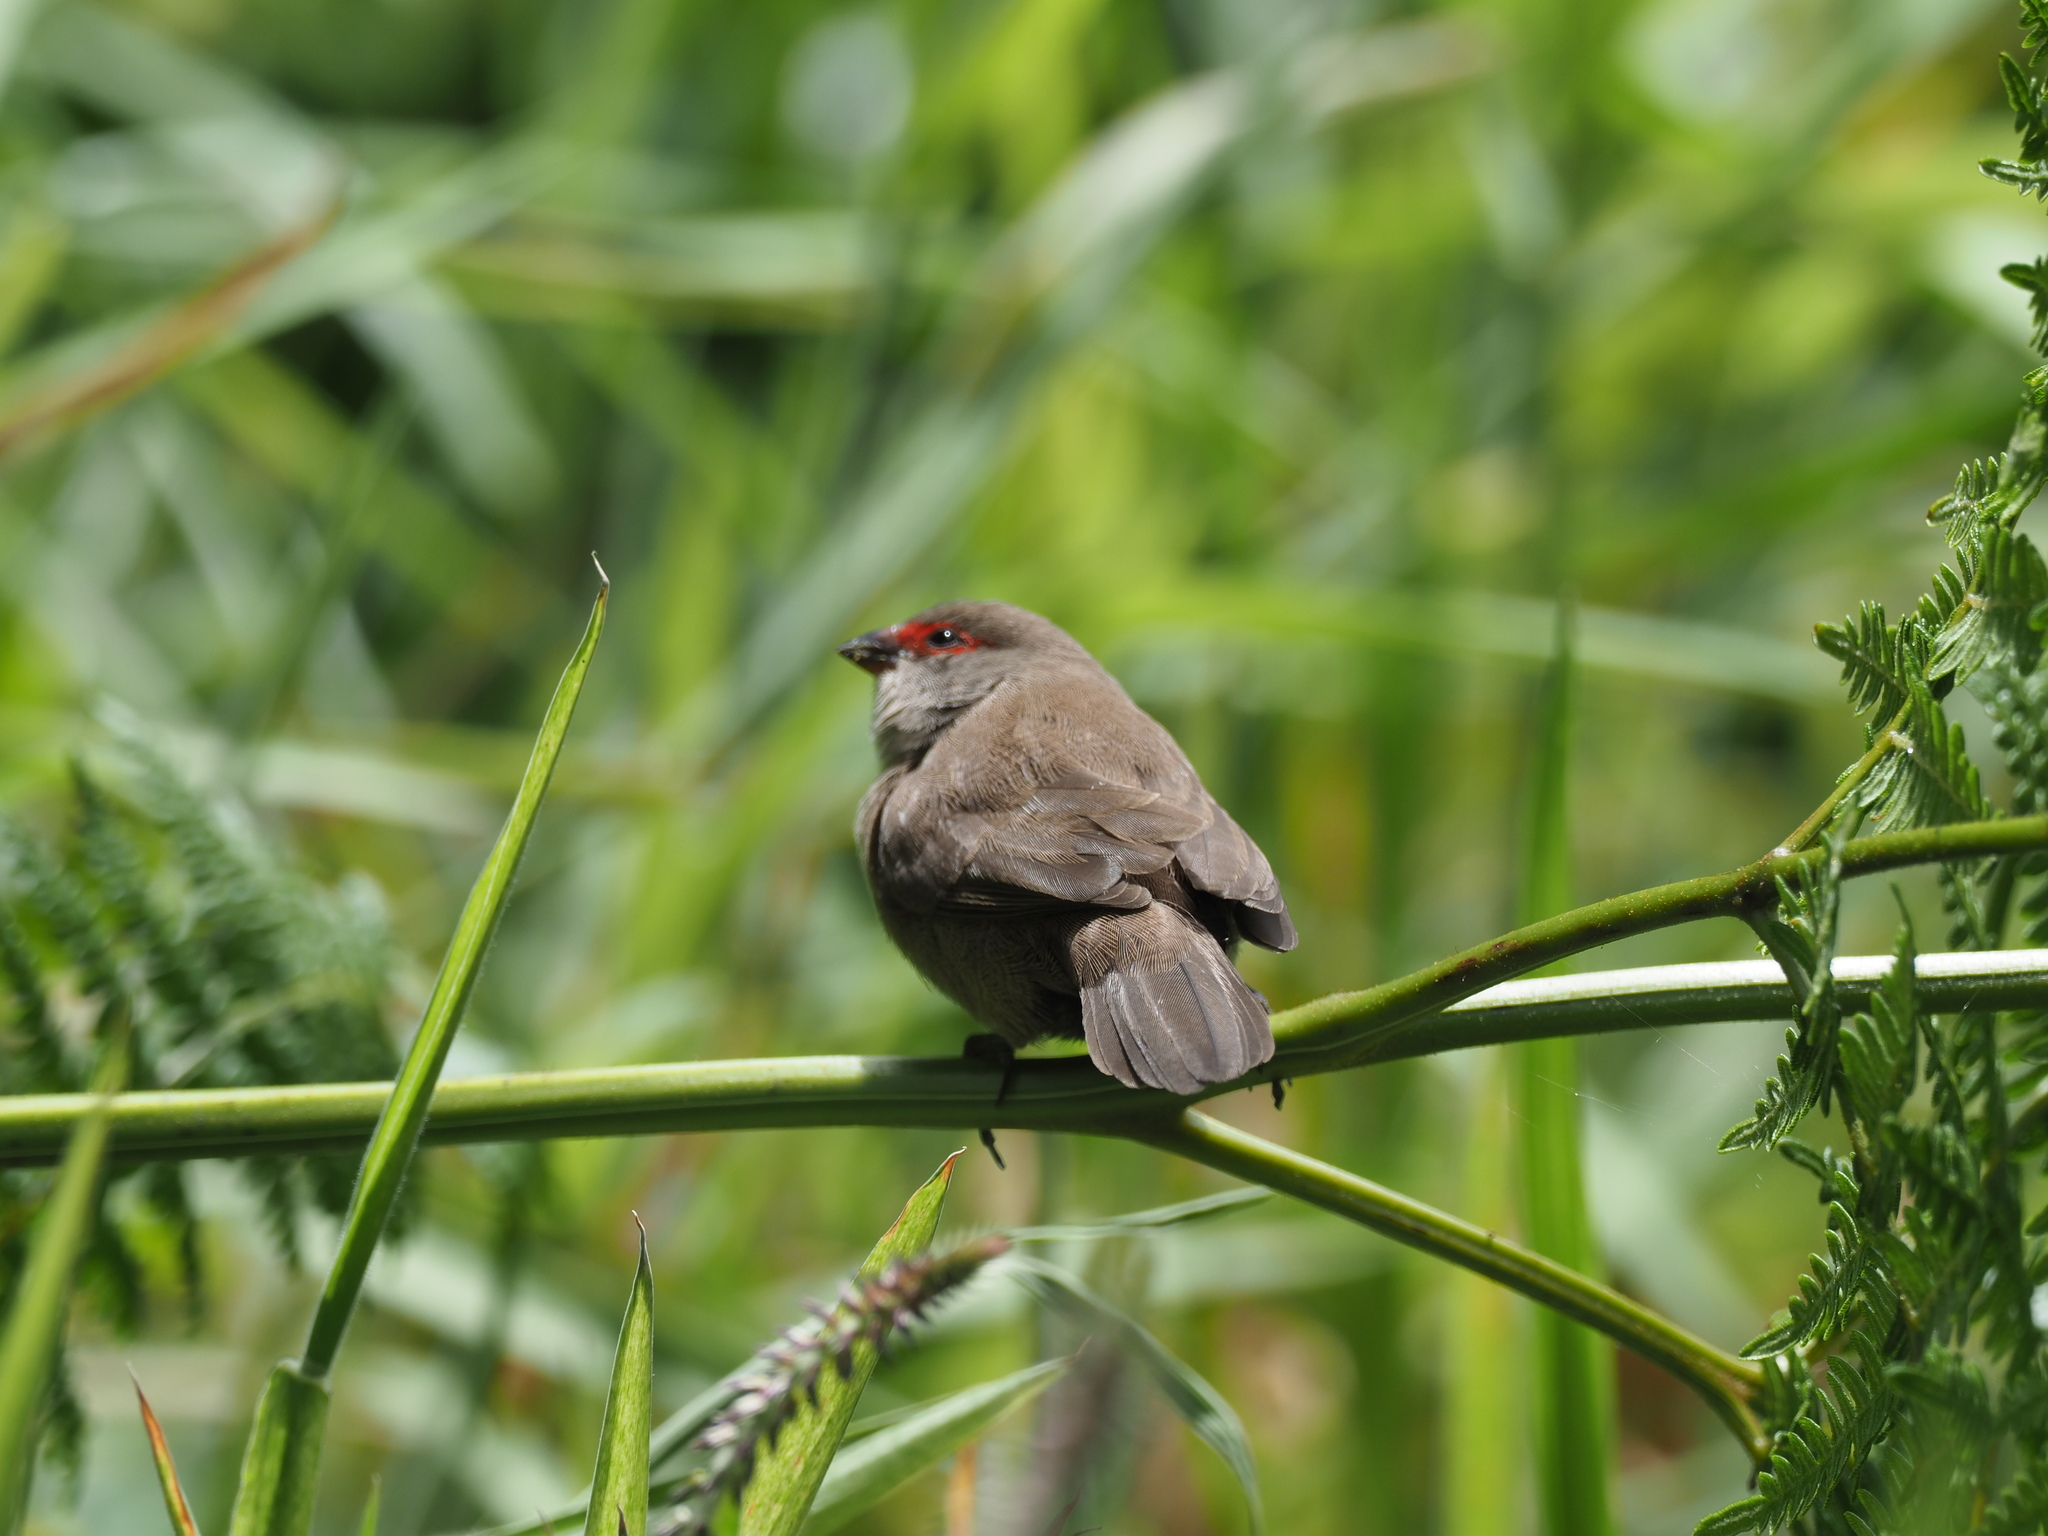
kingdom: Animalia
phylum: Chordata
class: Aves
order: Passeriformes
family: Estrildidae
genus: Estrilda
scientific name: Estrilda astrild
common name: Common waxbill
